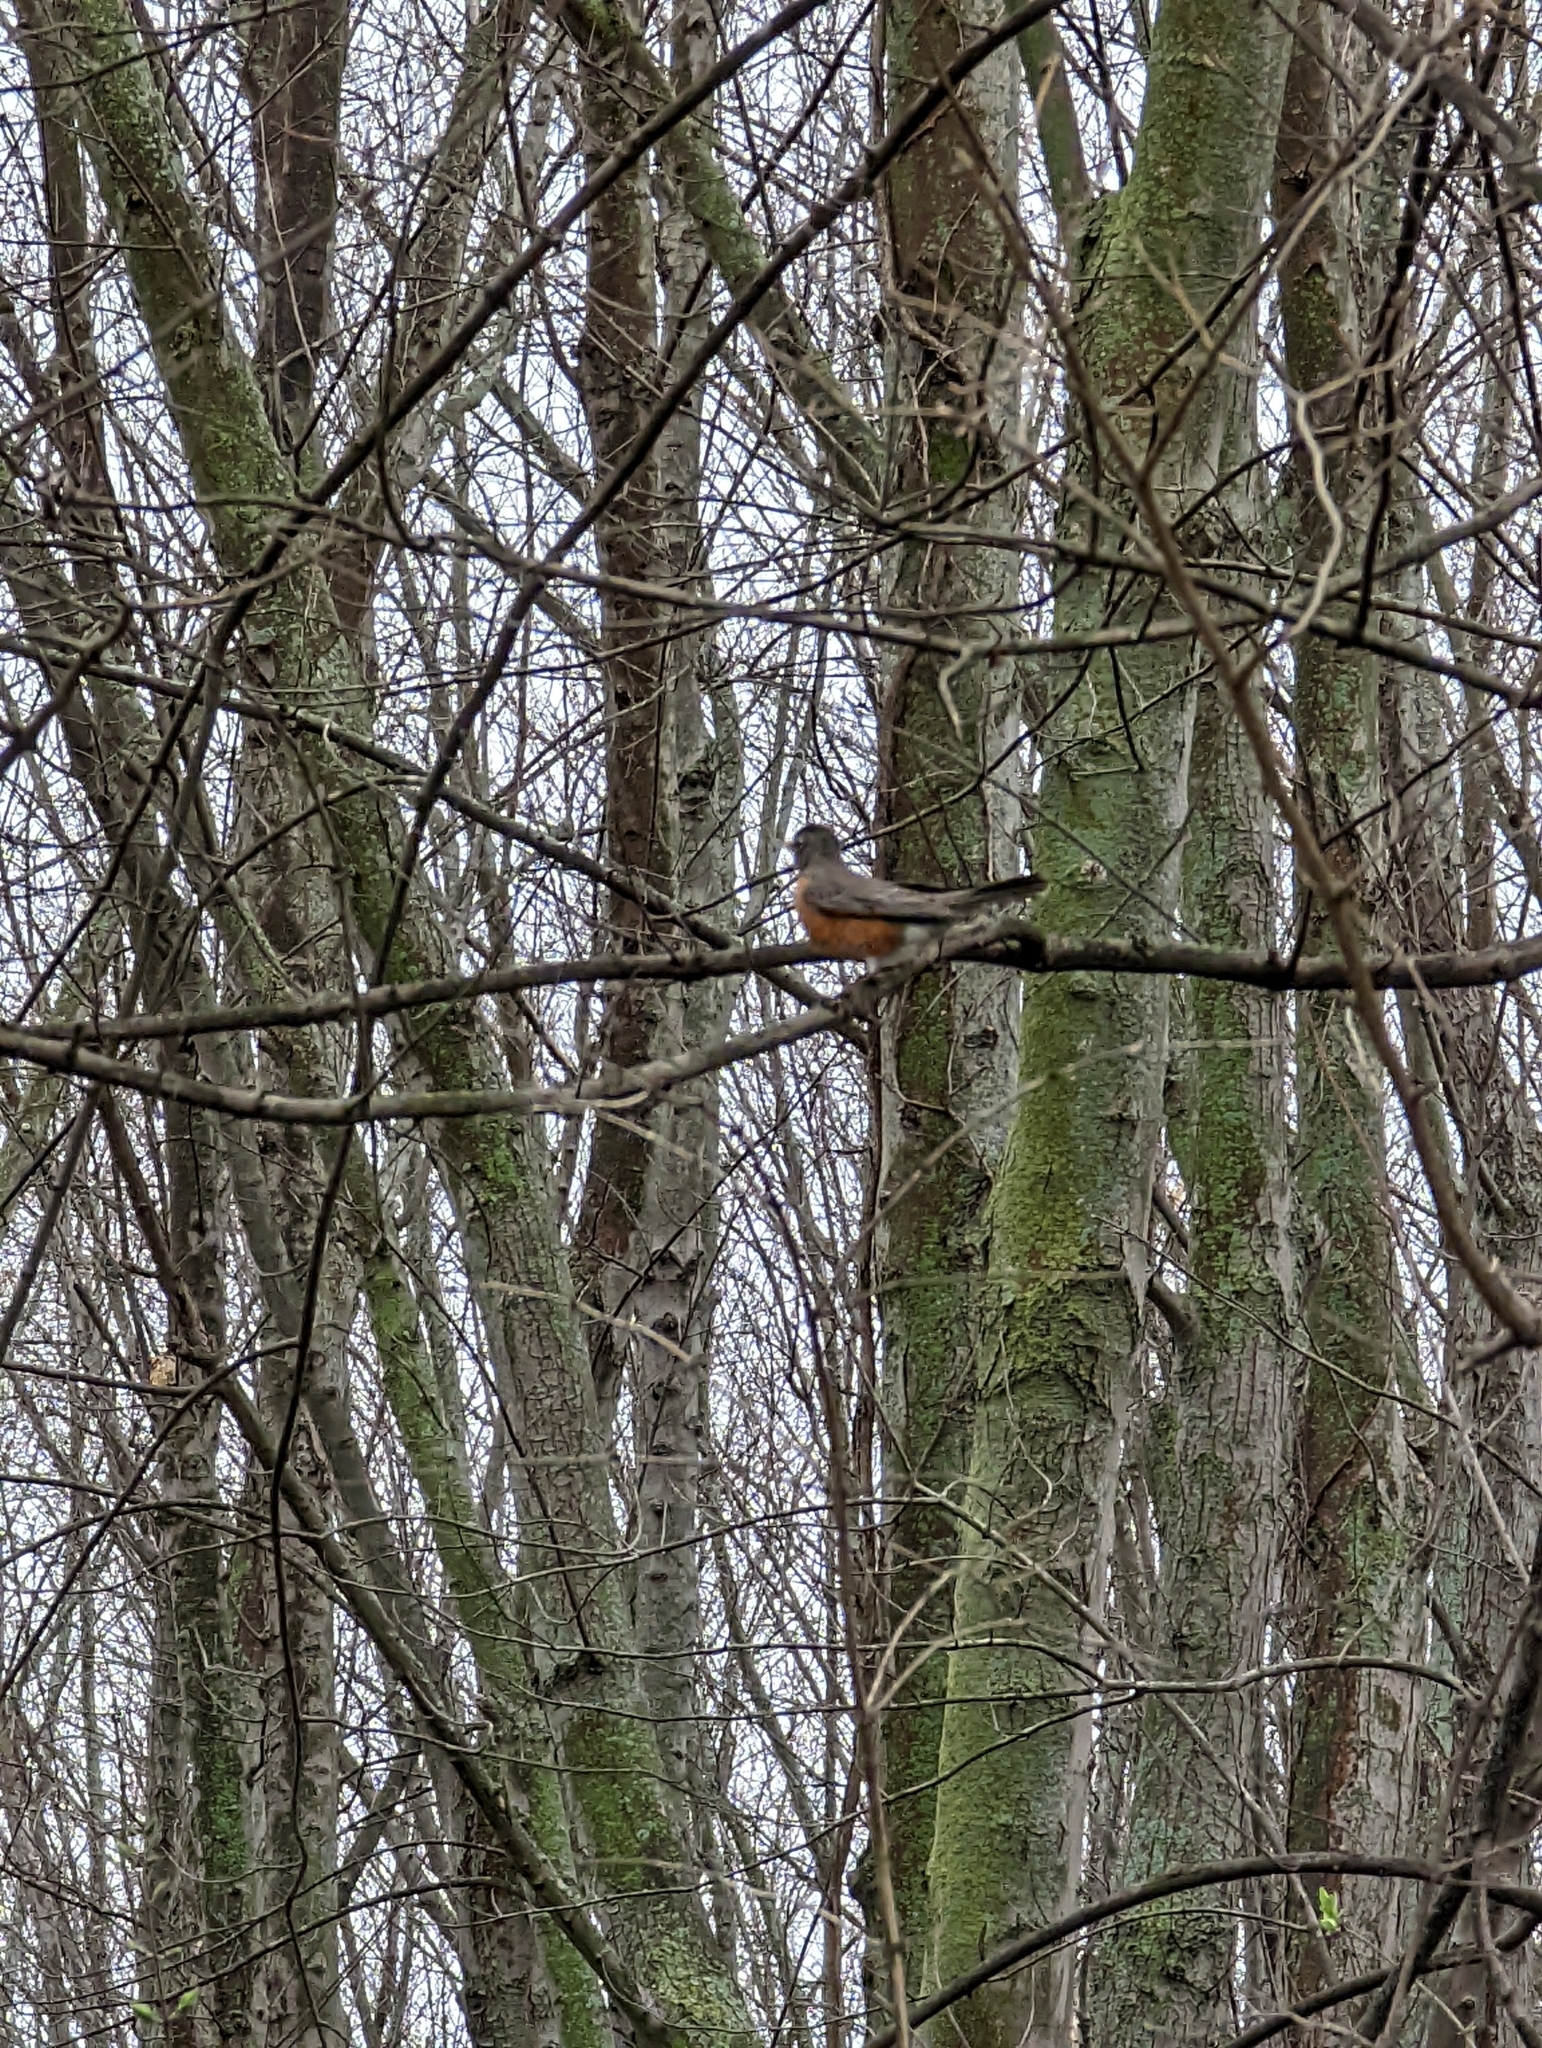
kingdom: Animalia
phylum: Chordata
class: Aves
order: Passeriformes
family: Turdidae
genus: Turdus
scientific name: Turdus migratorius
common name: American robin
